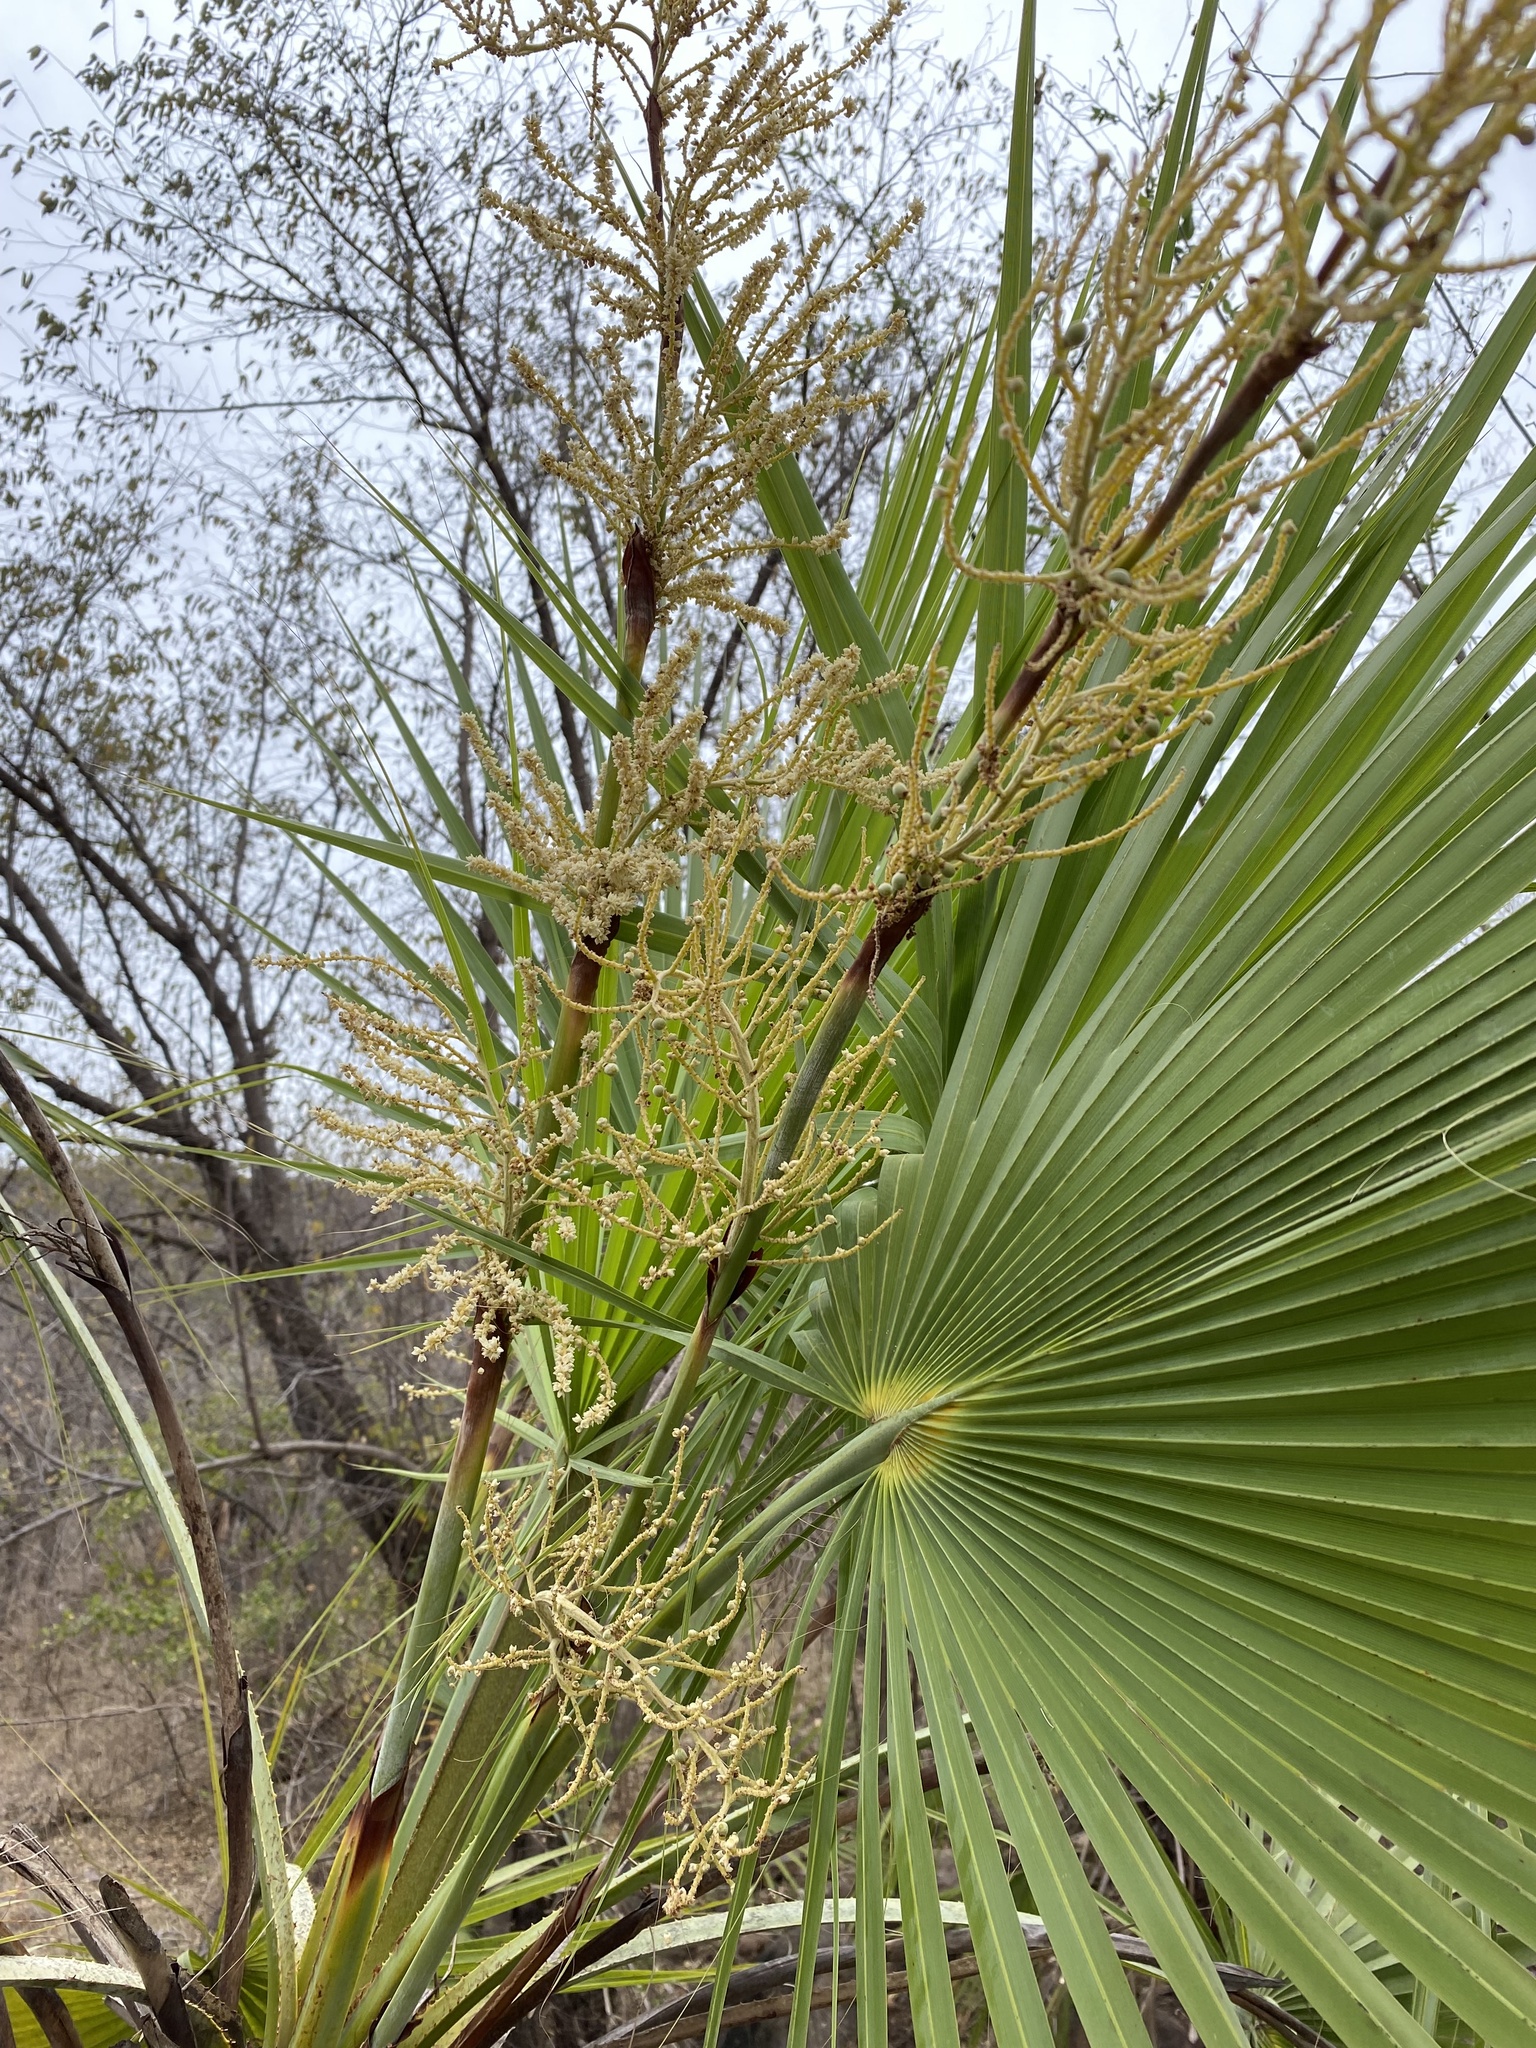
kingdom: Plantae
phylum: Tracheophyta
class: Liliopsida
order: Arecales
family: Arecaceae
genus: Brahea
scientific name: Brahea aculeata
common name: Sinaloa hesper palm
